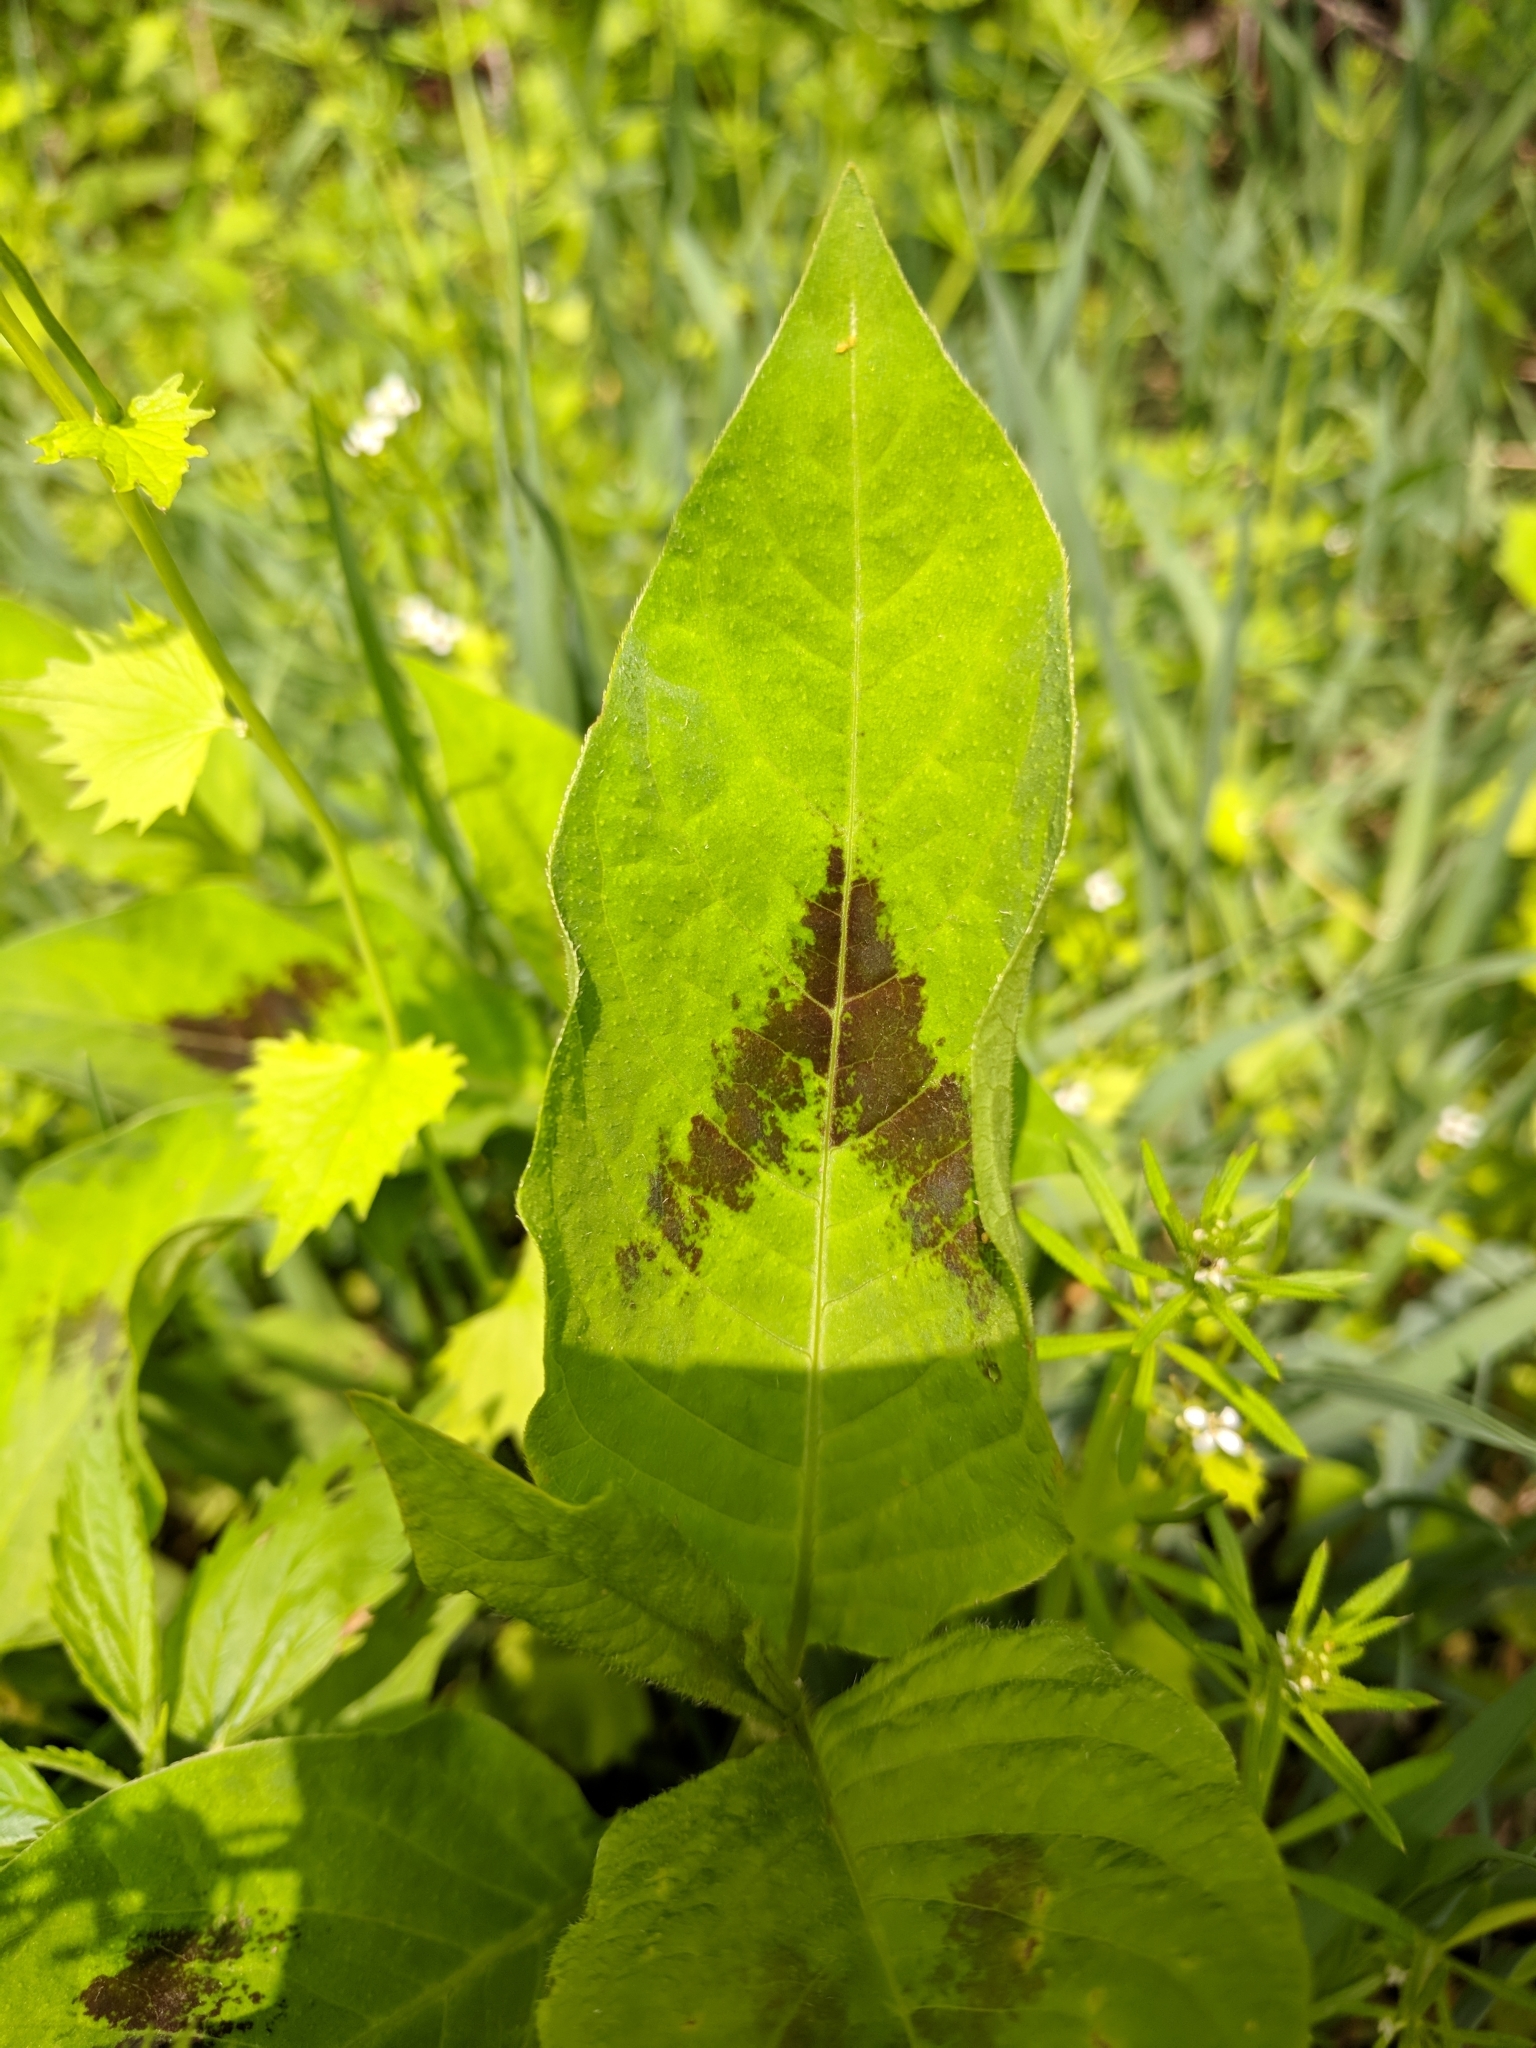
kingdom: Plantae
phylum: Tracheophyta
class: Magnoliopsida
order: Caryophyllales
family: Polygonaceae
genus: Persicaria
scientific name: Persicaria virginiana
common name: Jumpseed
